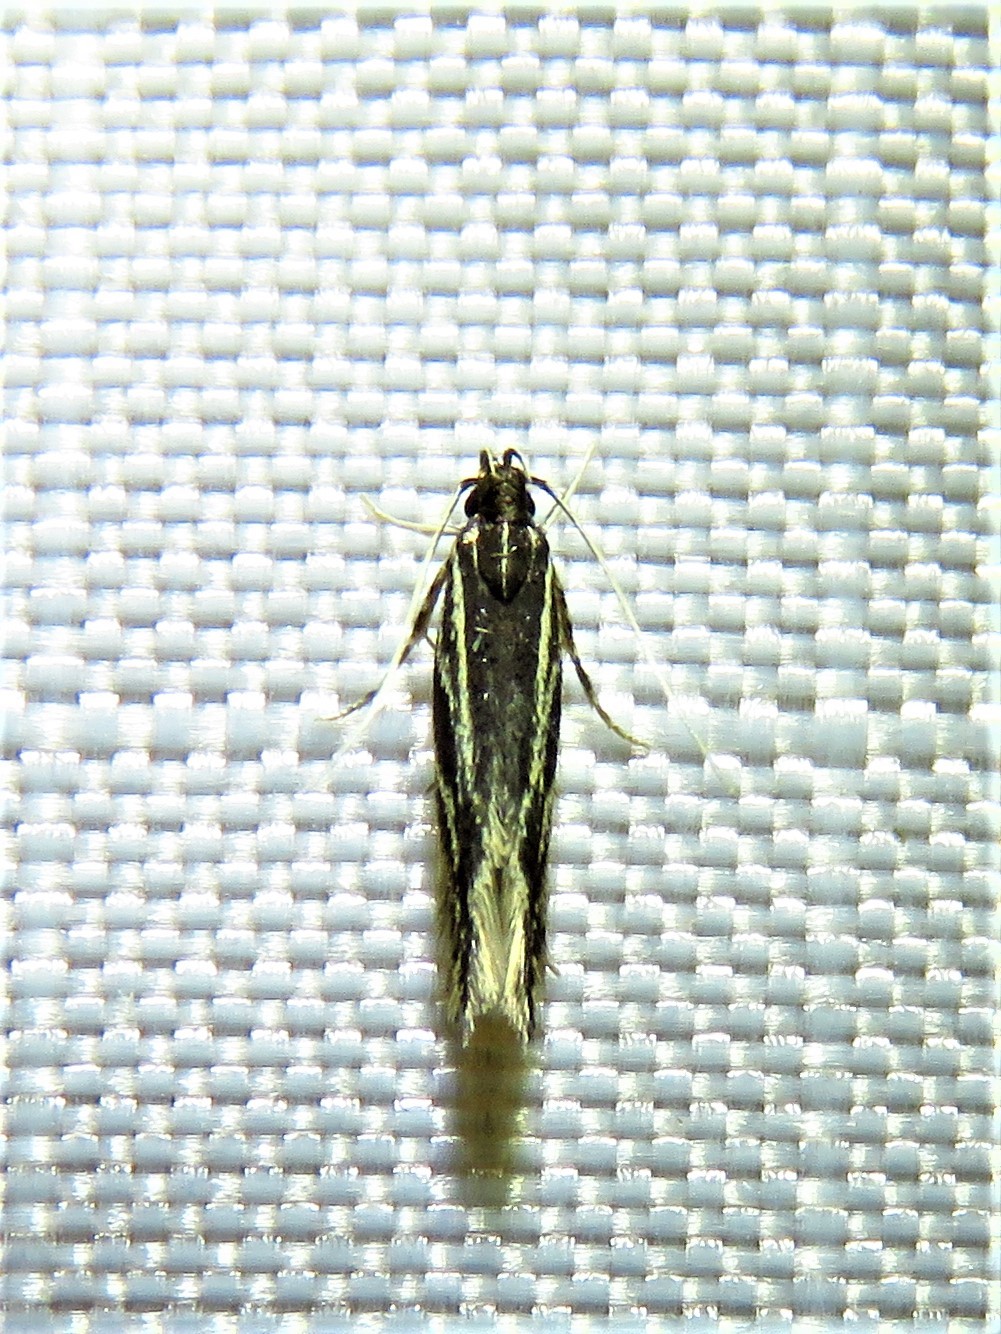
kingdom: Animalia
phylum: Arthropoda
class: Insecta
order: Lepidoptera
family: Cosmopterigidae
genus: Eralea
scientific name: Eralea albalineella
